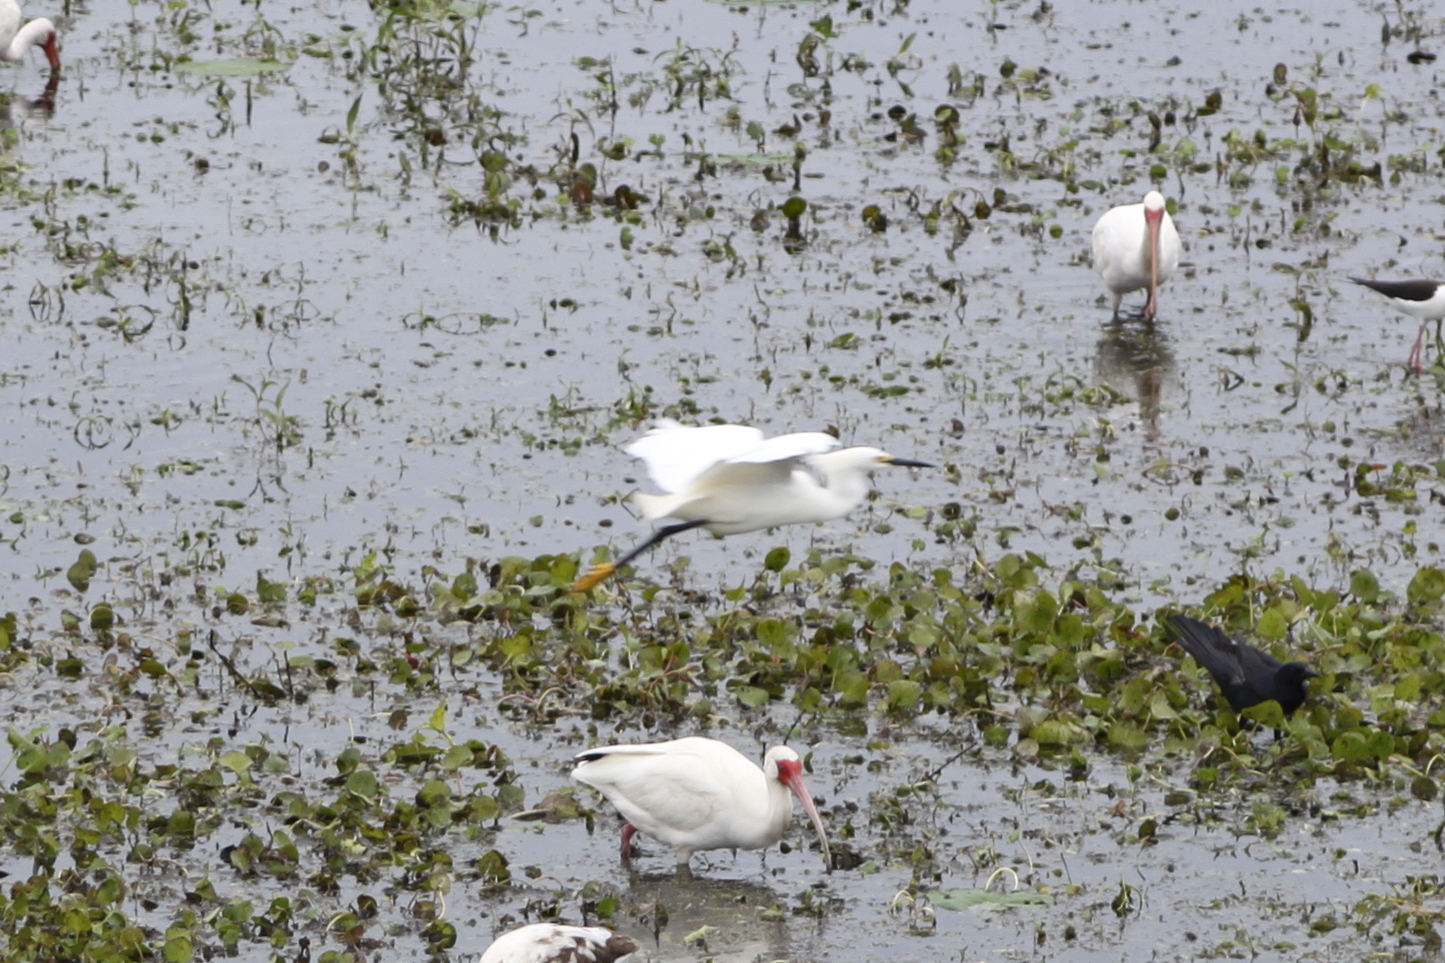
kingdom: Animalia
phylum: Chordata
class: Aves
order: Pelecaniformes
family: Ardeidae
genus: Egretta
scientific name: Egretta thula
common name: Snowy egret
